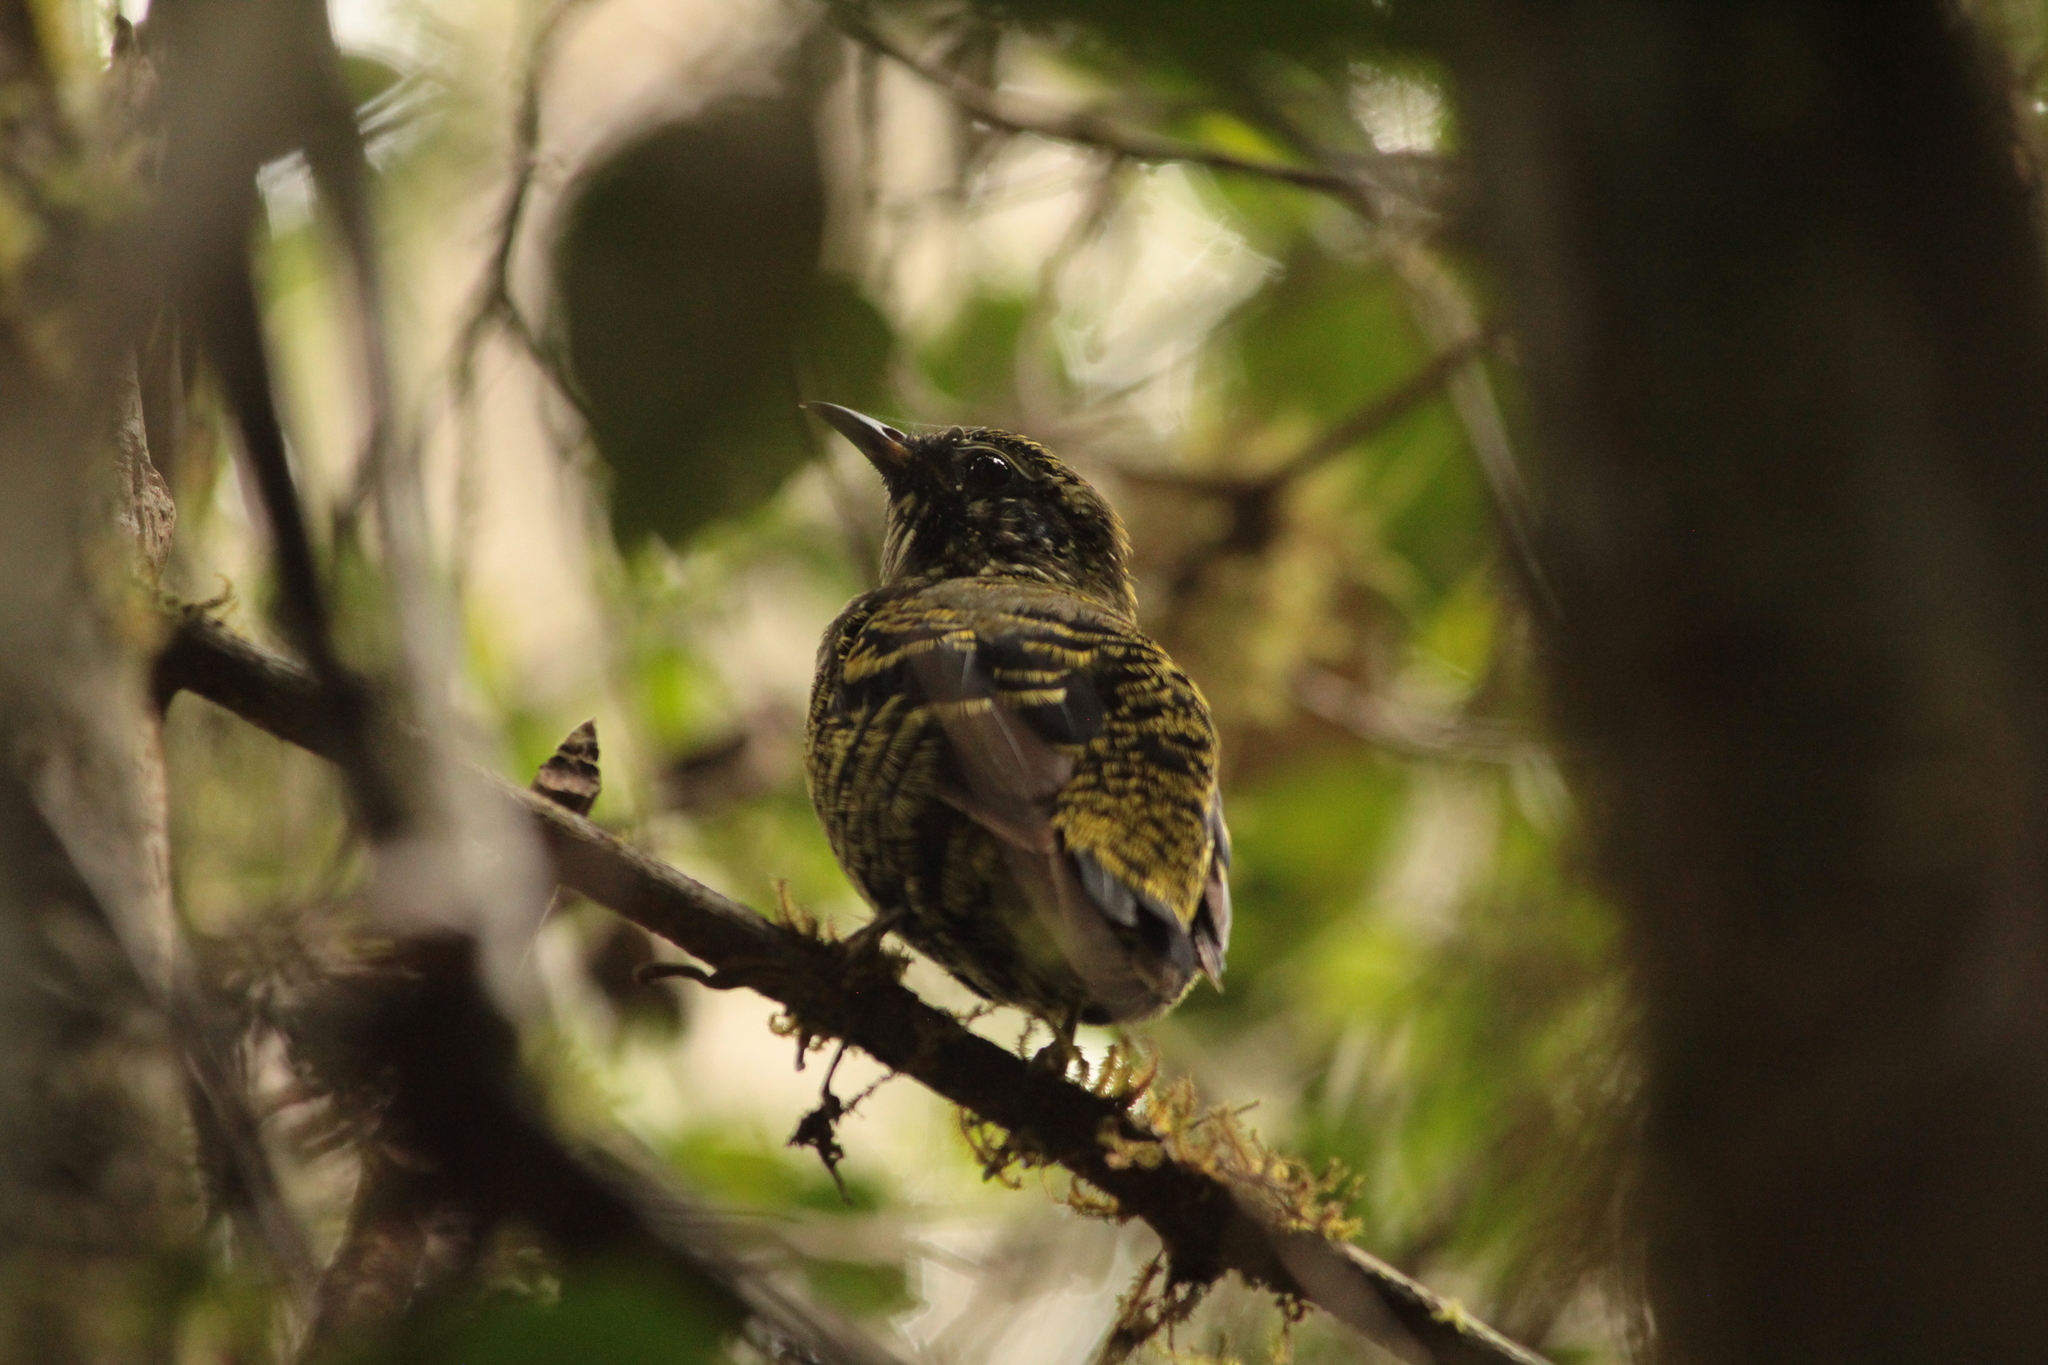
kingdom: Animalia
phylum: Chordata
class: Aves
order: Passeriformes
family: Philepittidae
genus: Philepitta
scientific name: Philepitta castanea
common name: Velvet asity
